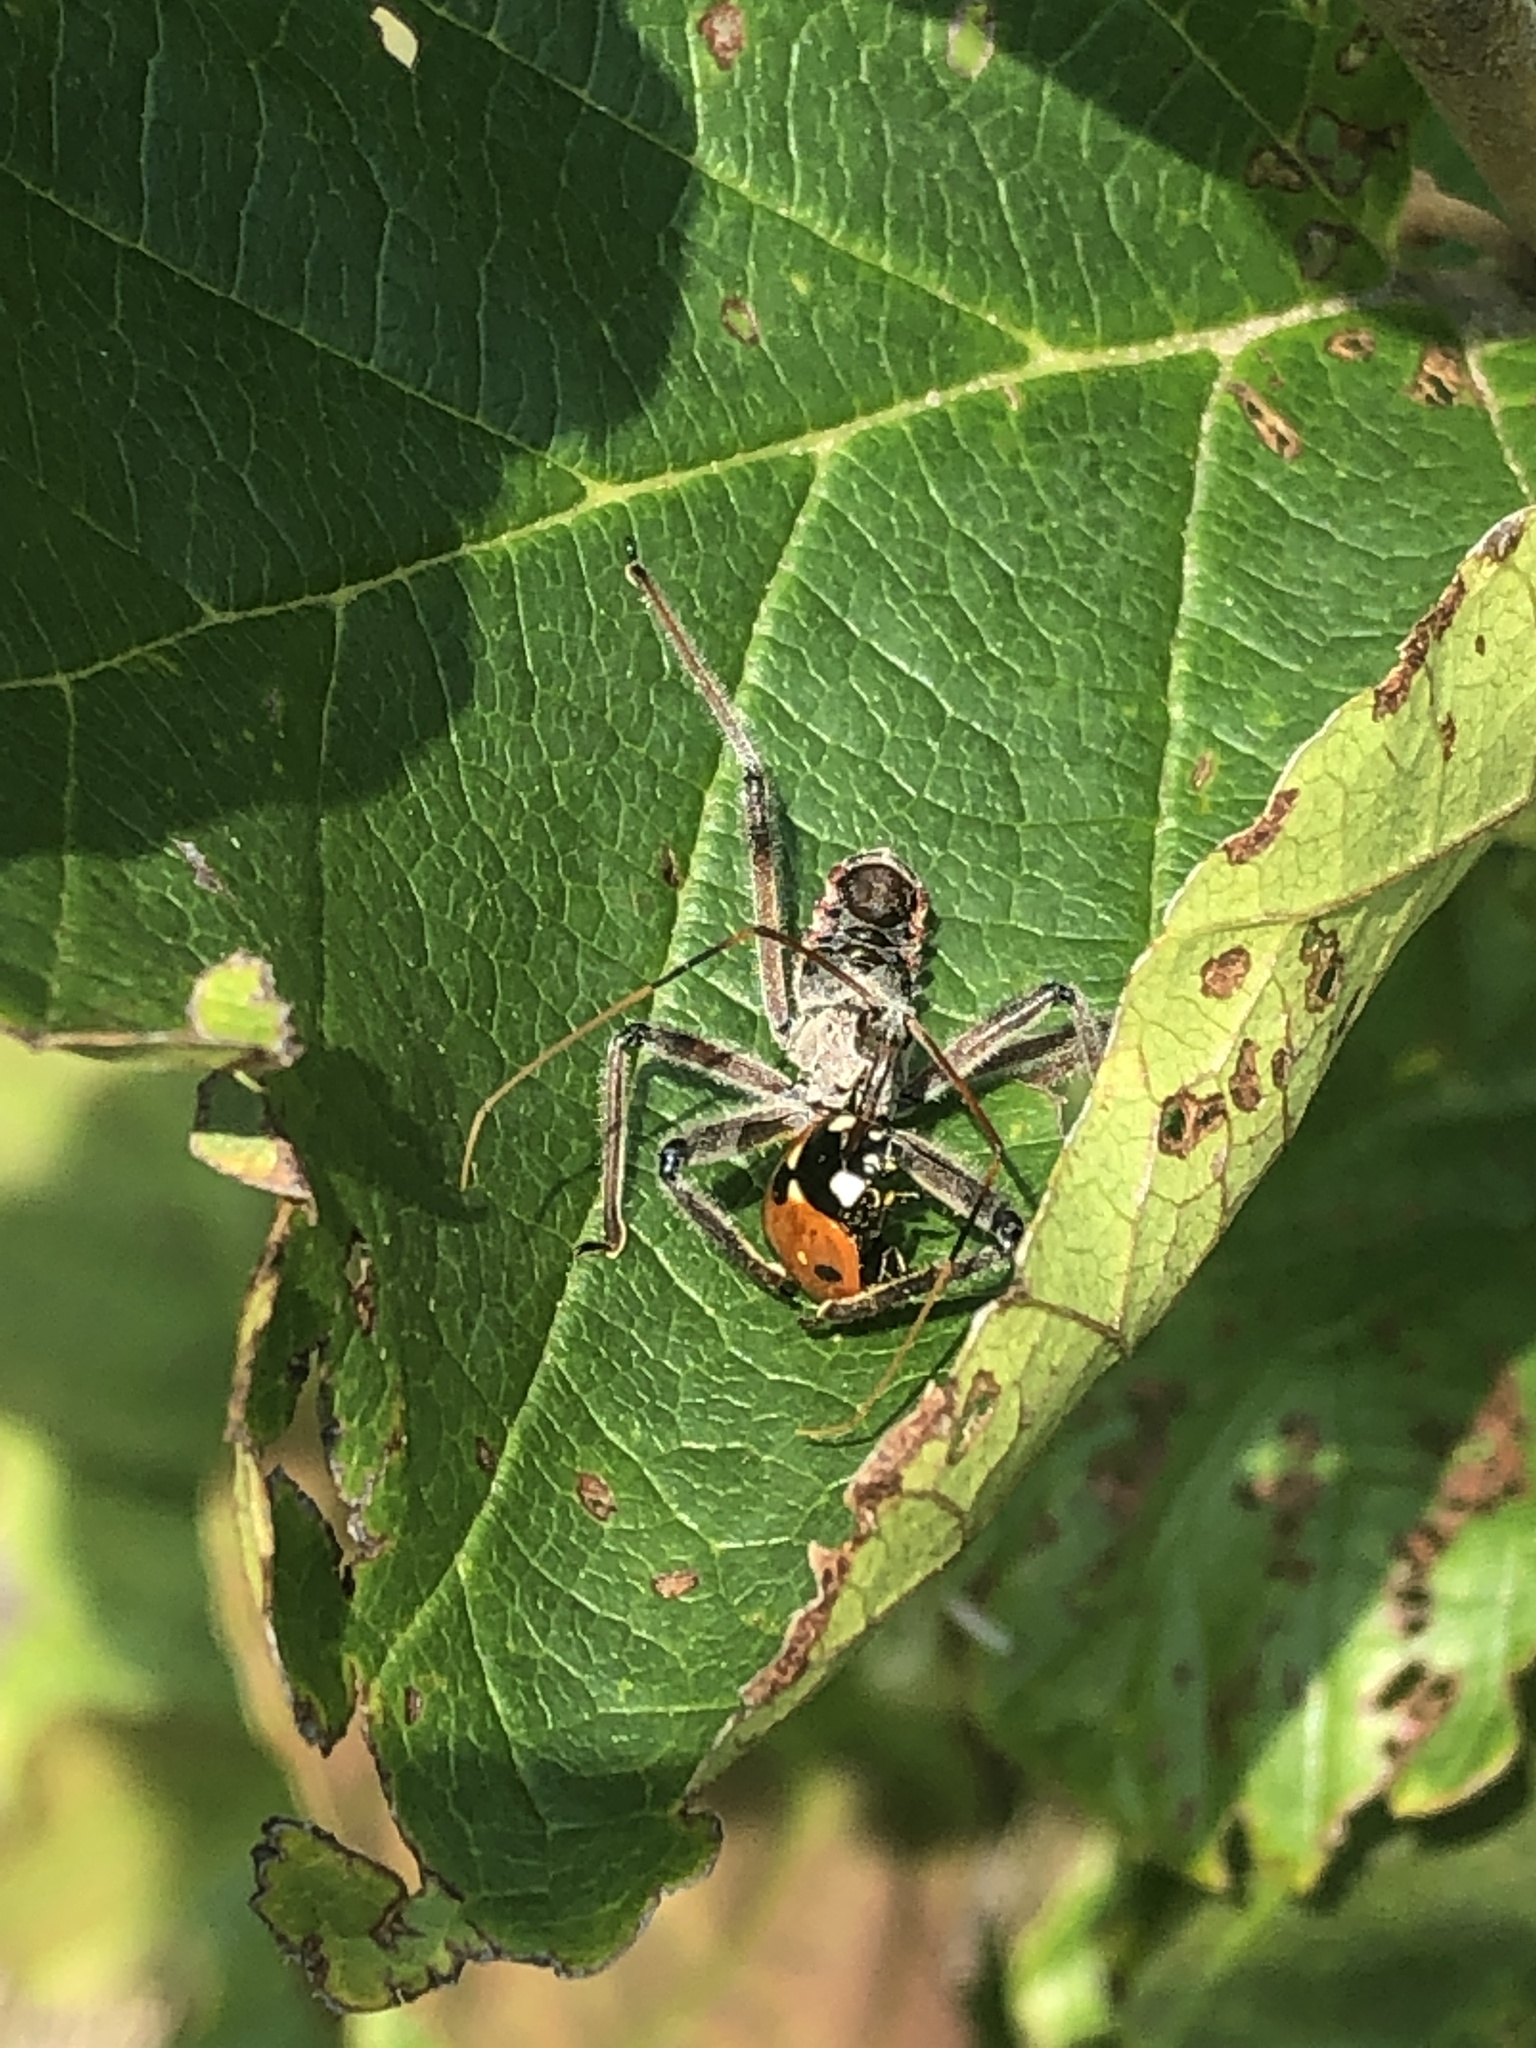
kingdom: Animalia
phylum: Arthropoda
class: Insecta
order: Hemiptera
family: Reduviidae
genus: Arilus
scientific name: Arilus cristatus
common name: North american wheel bug
